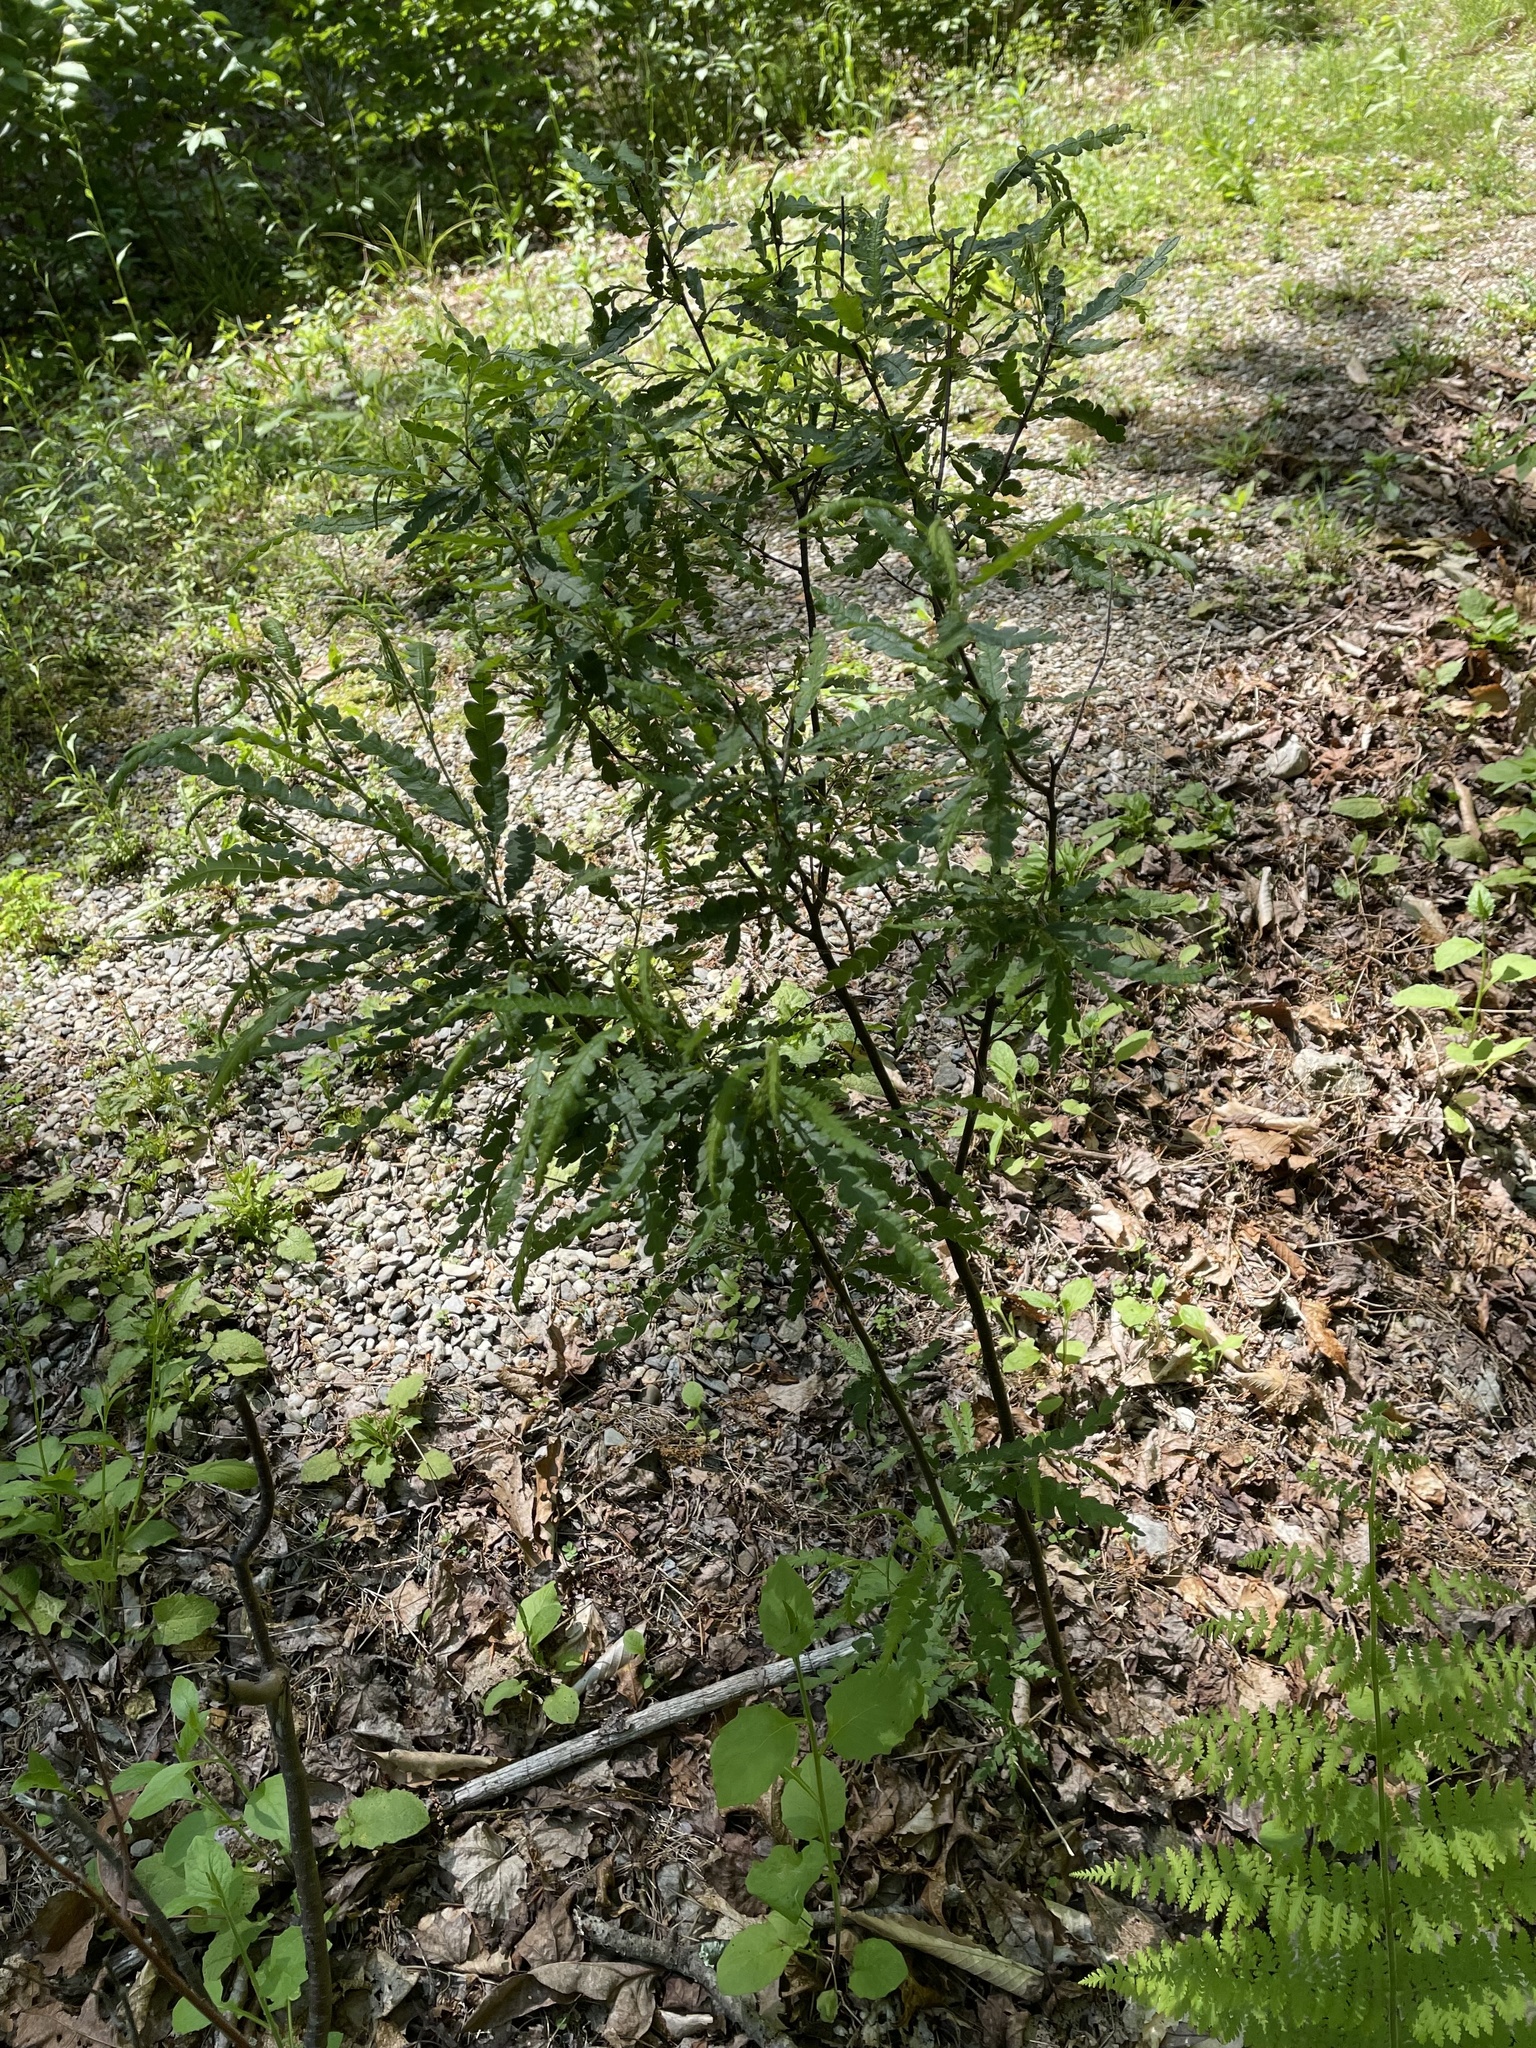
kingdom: Plantae
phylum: Tracheophyta
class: Magnoliopsida
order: Fagales
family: Myricaceae
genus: Comptonia
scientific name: Comptonia peregrina
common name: Sweet-fern
